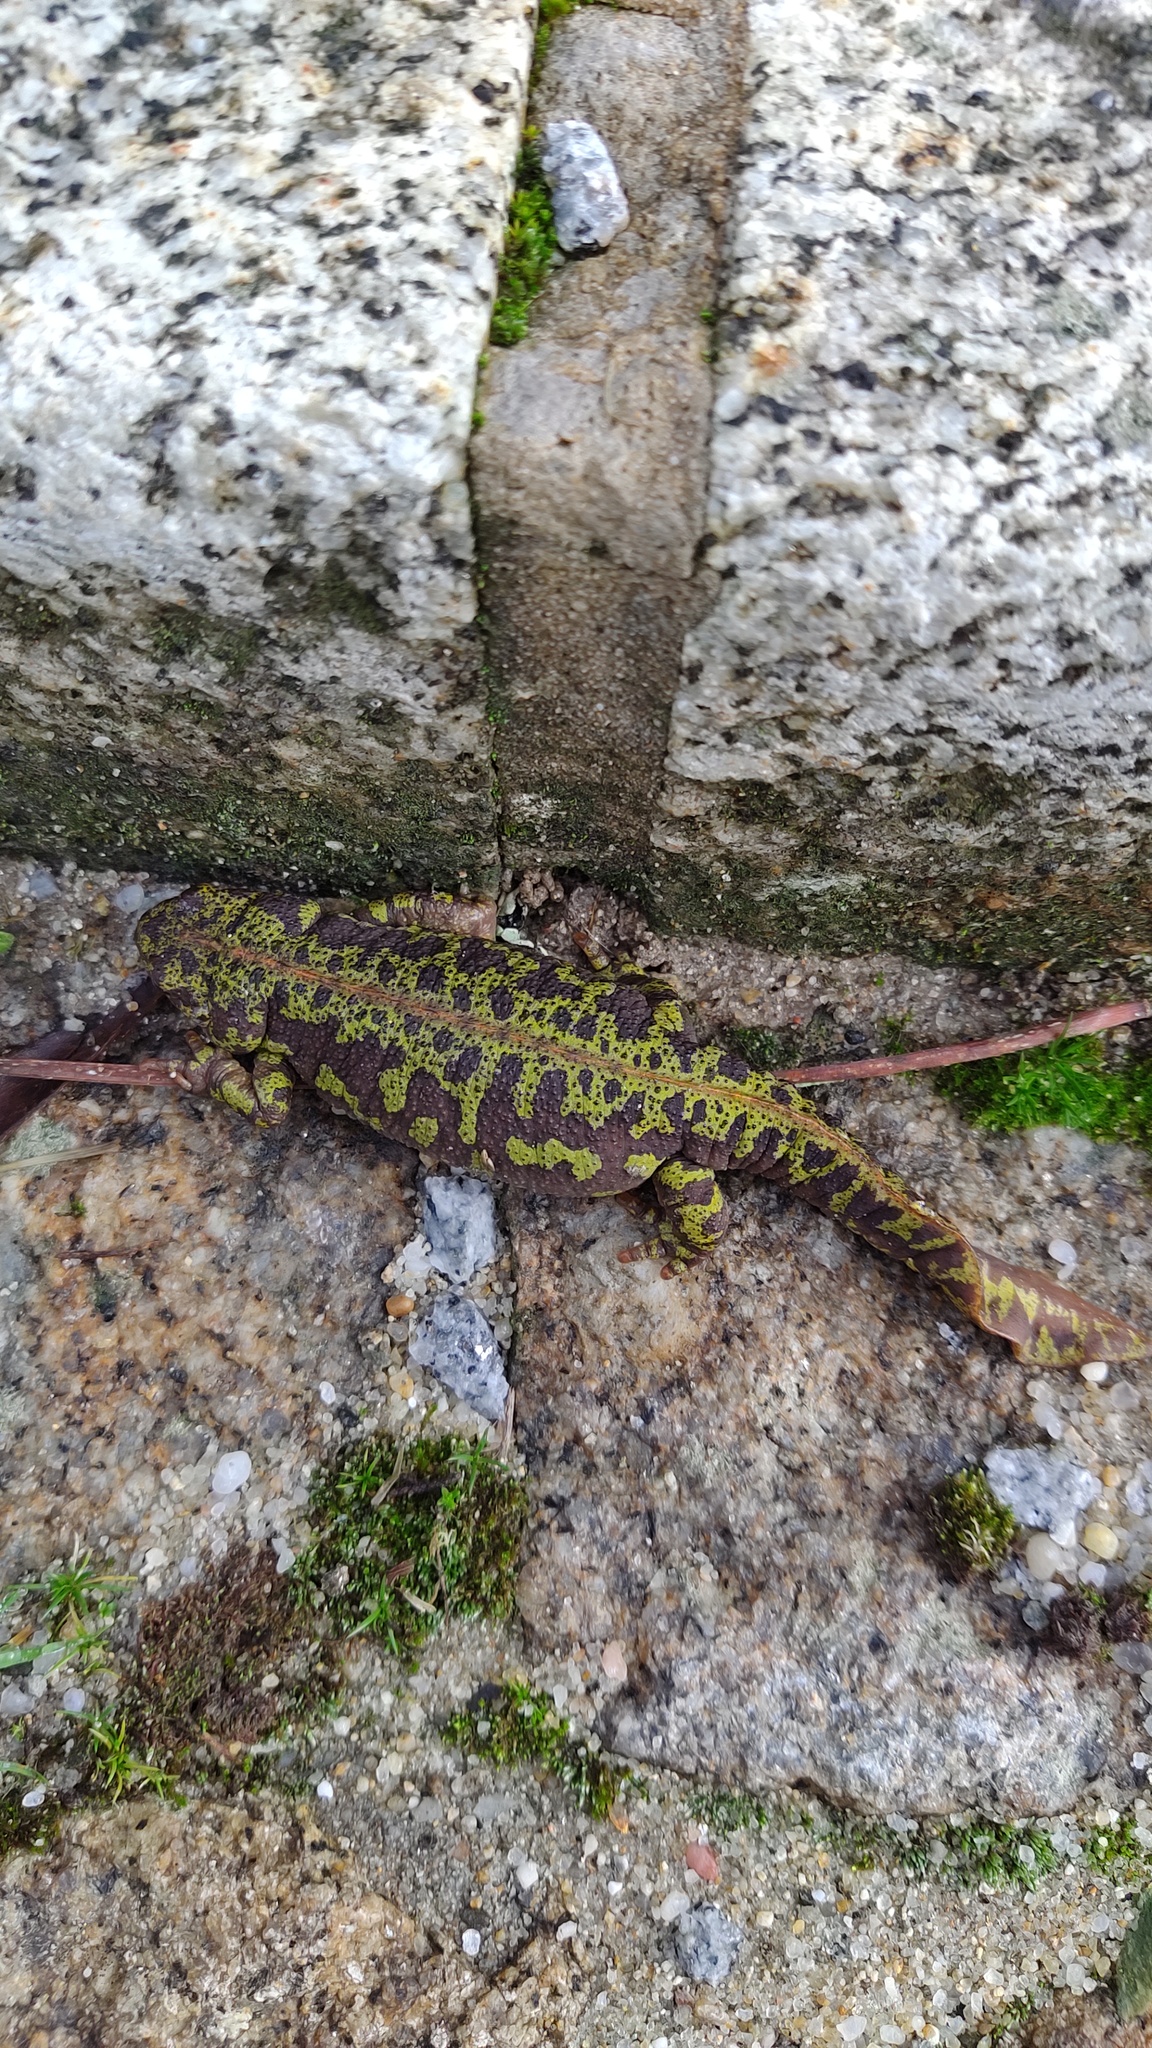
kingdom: Animalia
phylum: Chordata
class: Amphibia
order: Caudata
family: Salamandridae
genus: Triturus
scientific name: Triturus marmoratus
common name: Marbled newt
